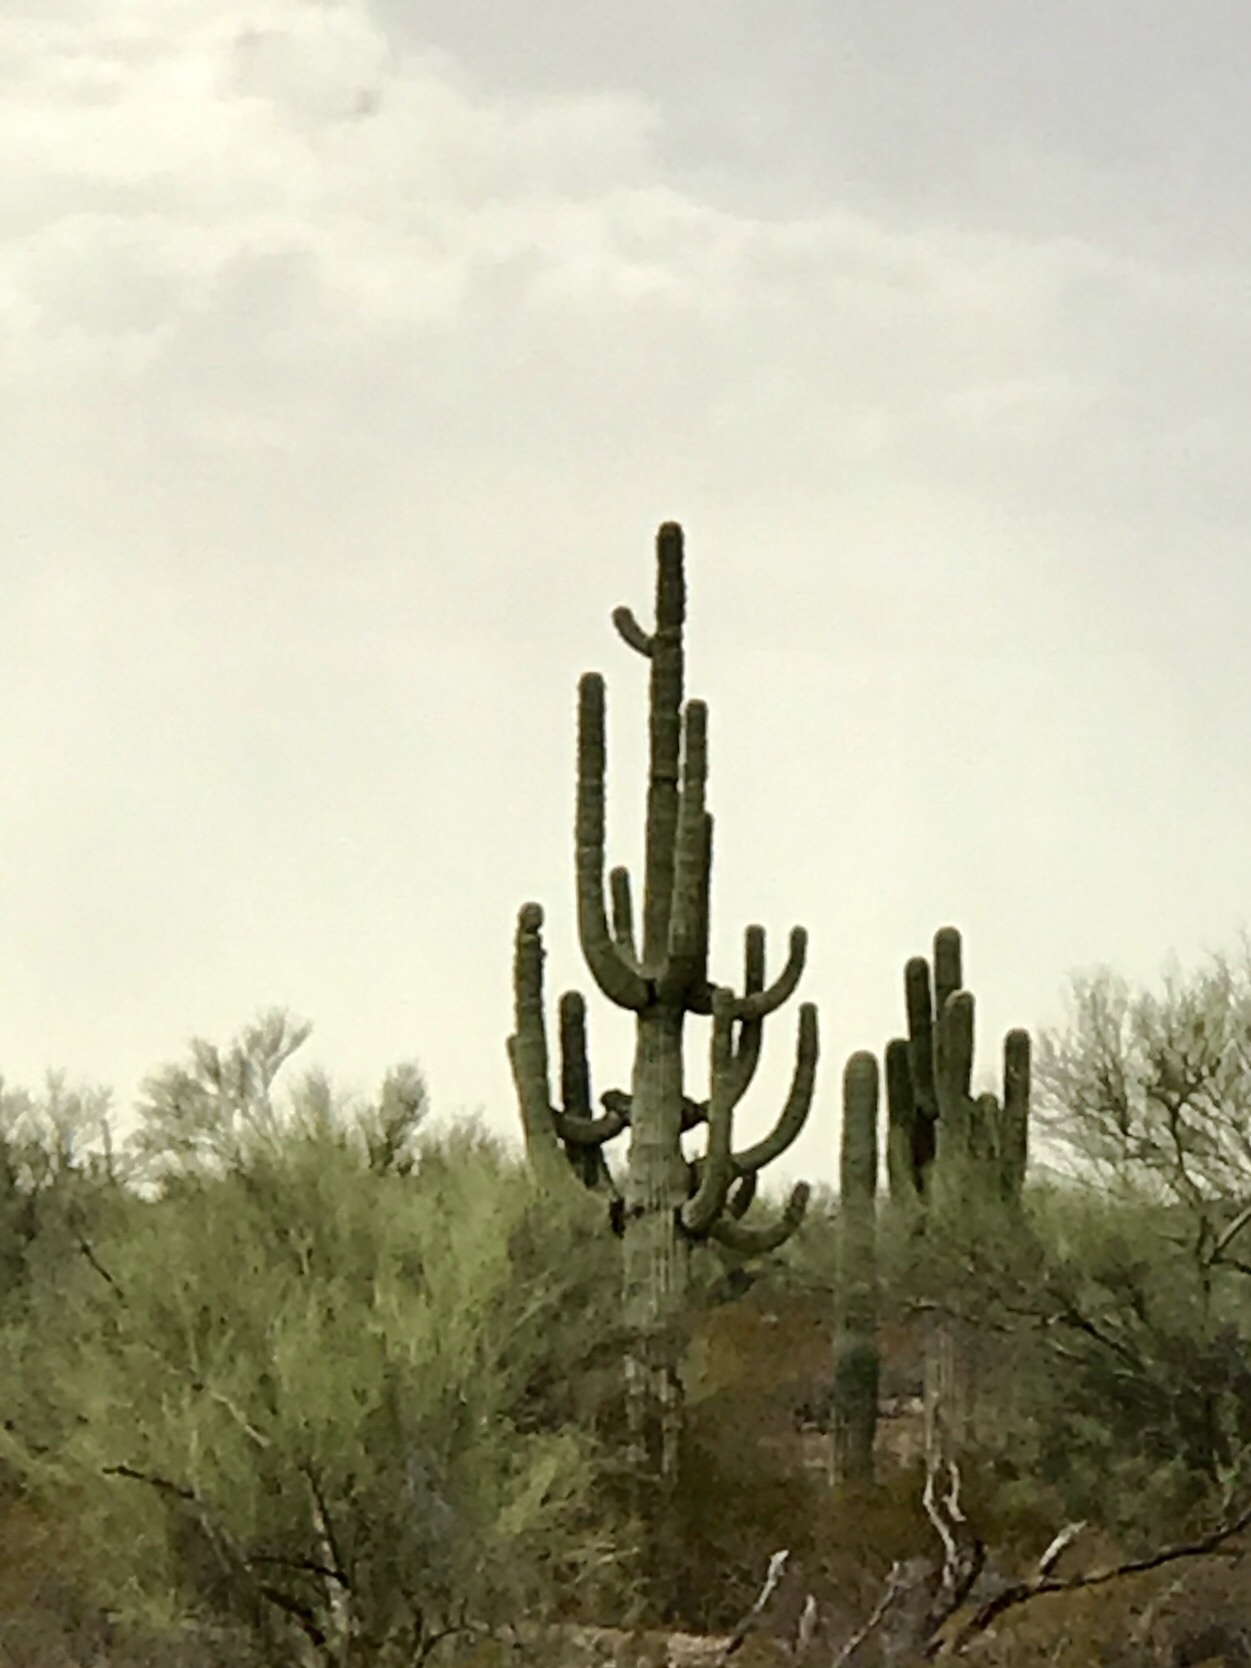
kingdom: Plantae
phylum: Tracheophyta
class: Magnoliopsida
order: Caryophyllales
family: Cactaceae
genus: Carnegiea
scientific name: Carnegiea gigantea
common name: Saguaro
